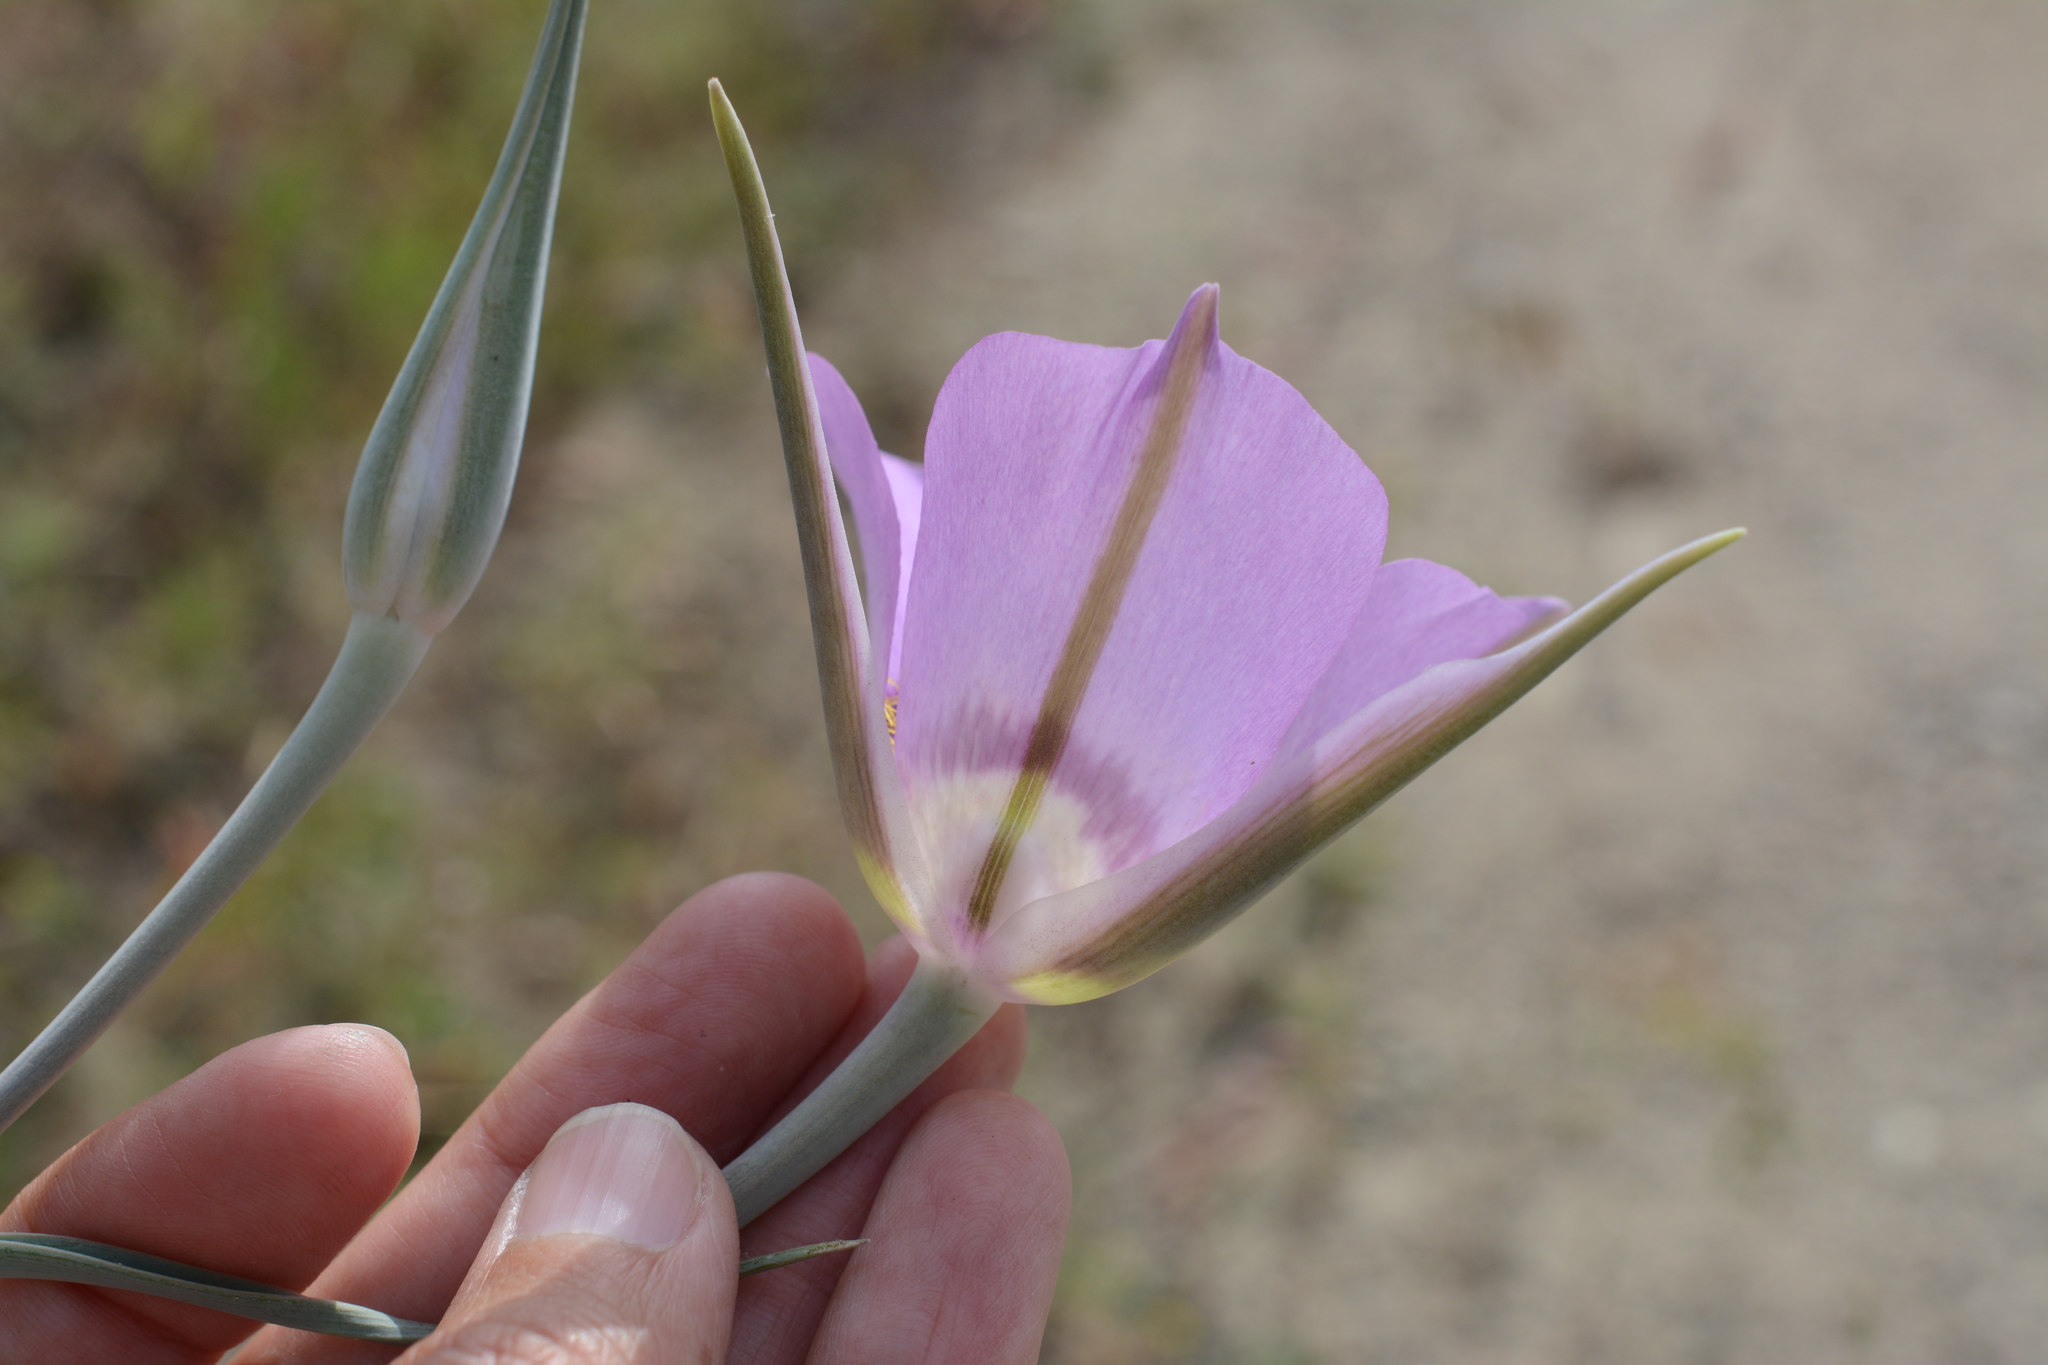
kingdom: Plantae
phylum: Tracheophyta
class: Liliopsida
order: Liliales
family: Liliaceae
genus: Calochortus
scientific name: Calochortus macrocarpus
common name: Green-band mariposa lily
